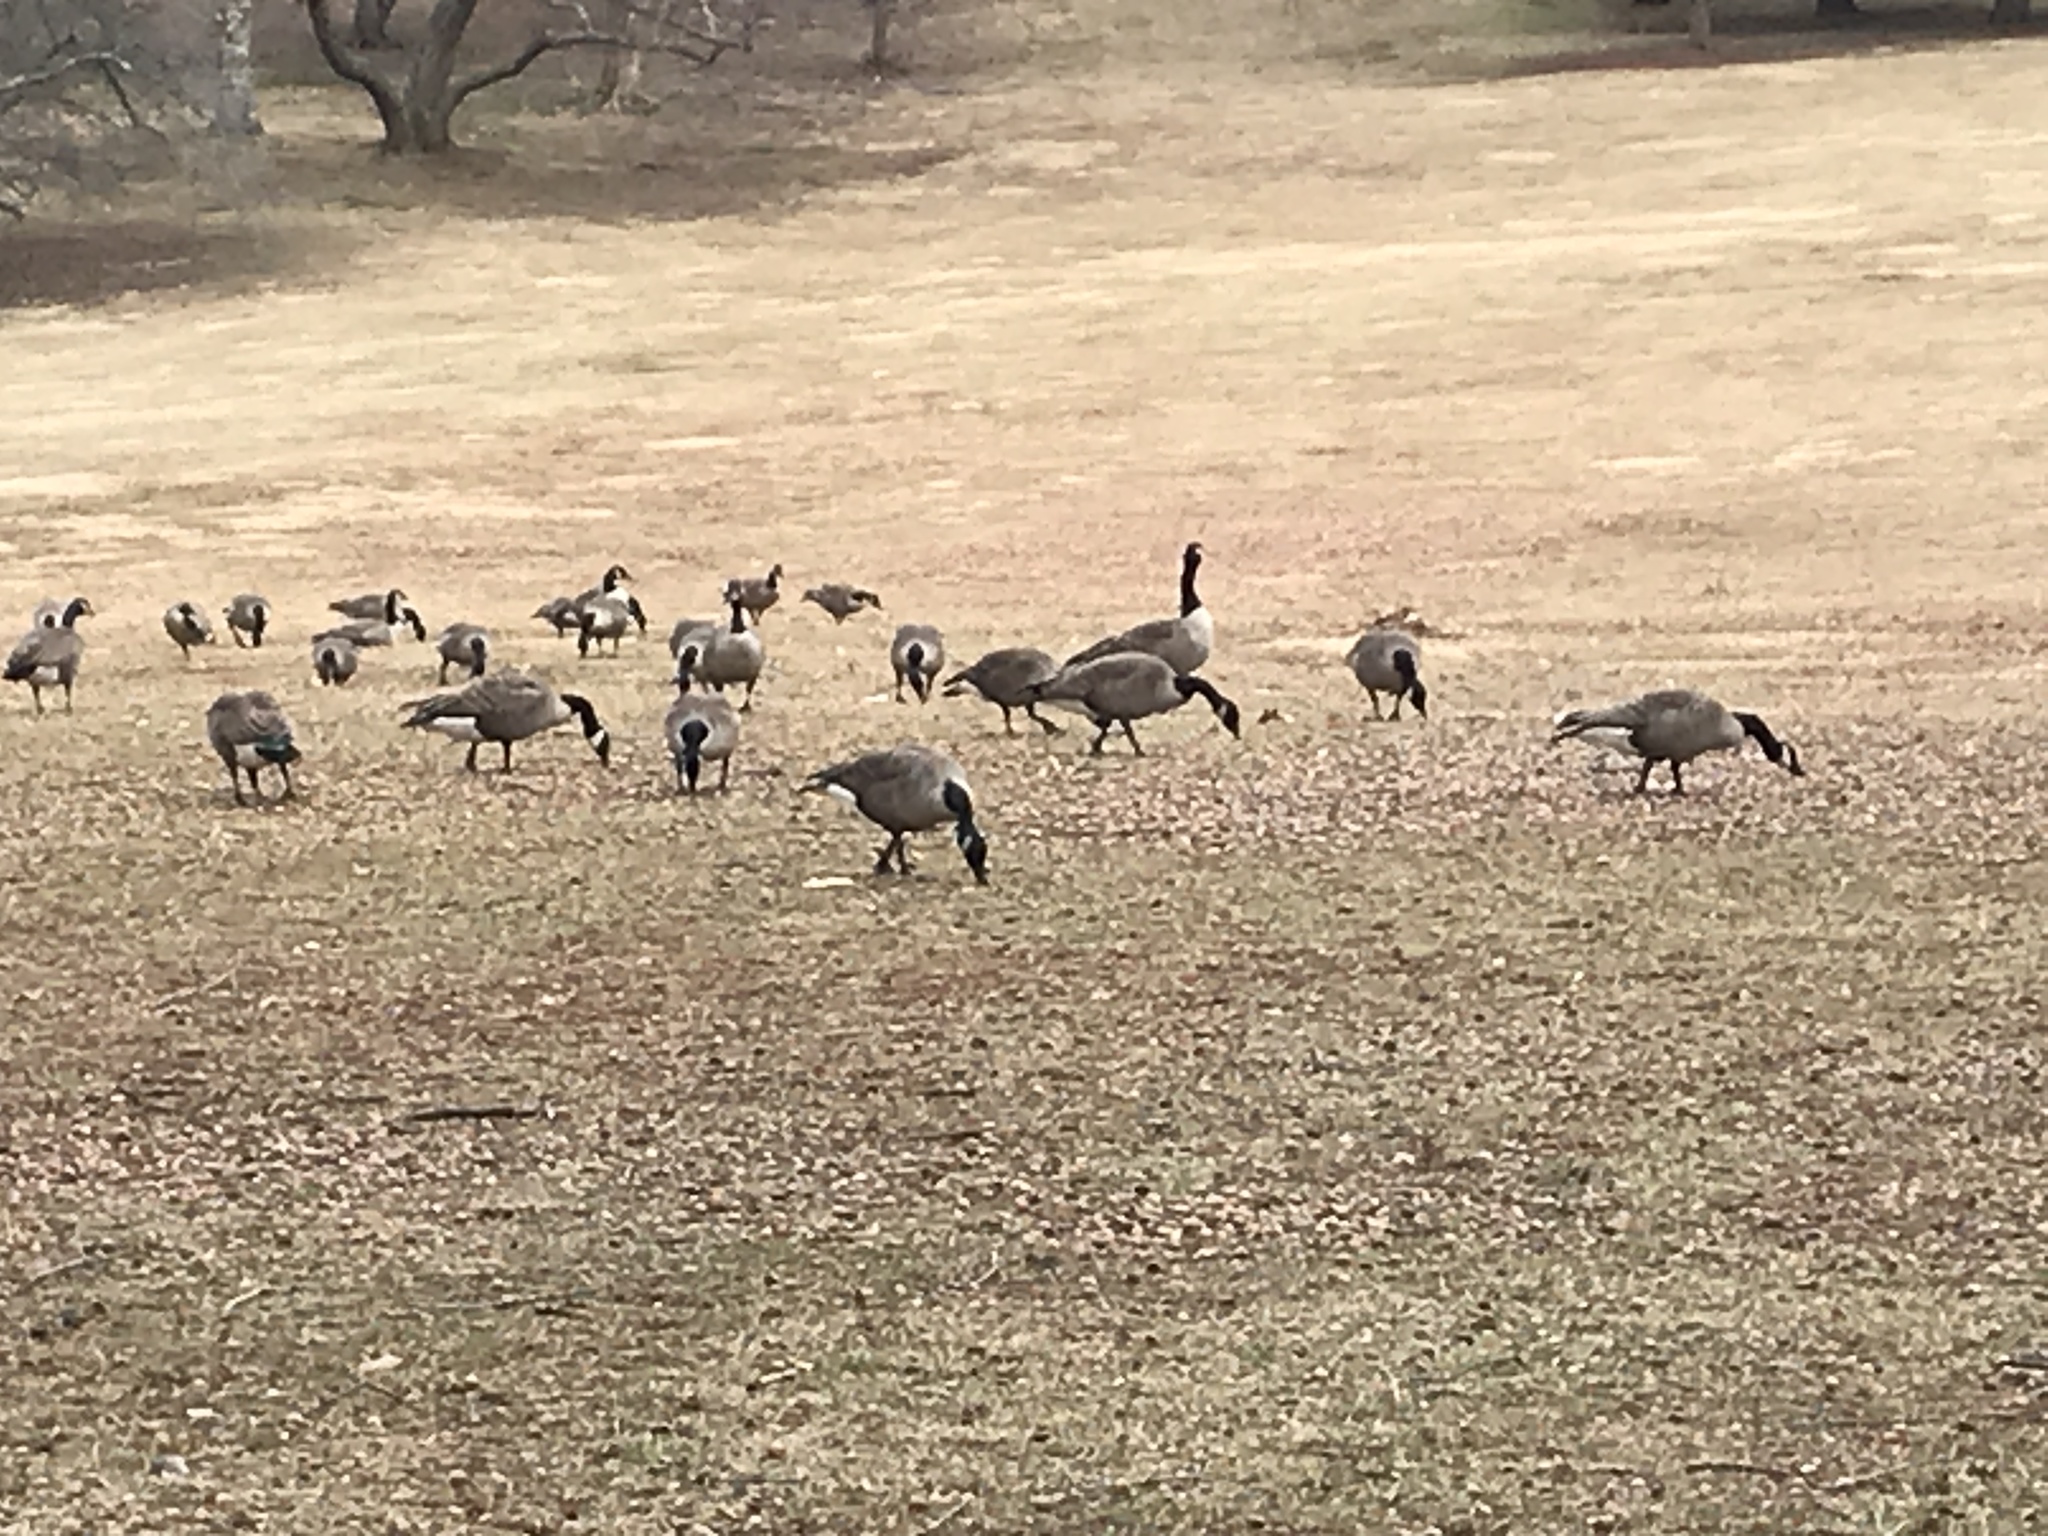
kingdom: Animalia
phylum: Chordata
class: Aves
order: Anseriformes
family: Anatidae
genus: Branta
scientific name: Branta canadensis
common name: Canada goose
